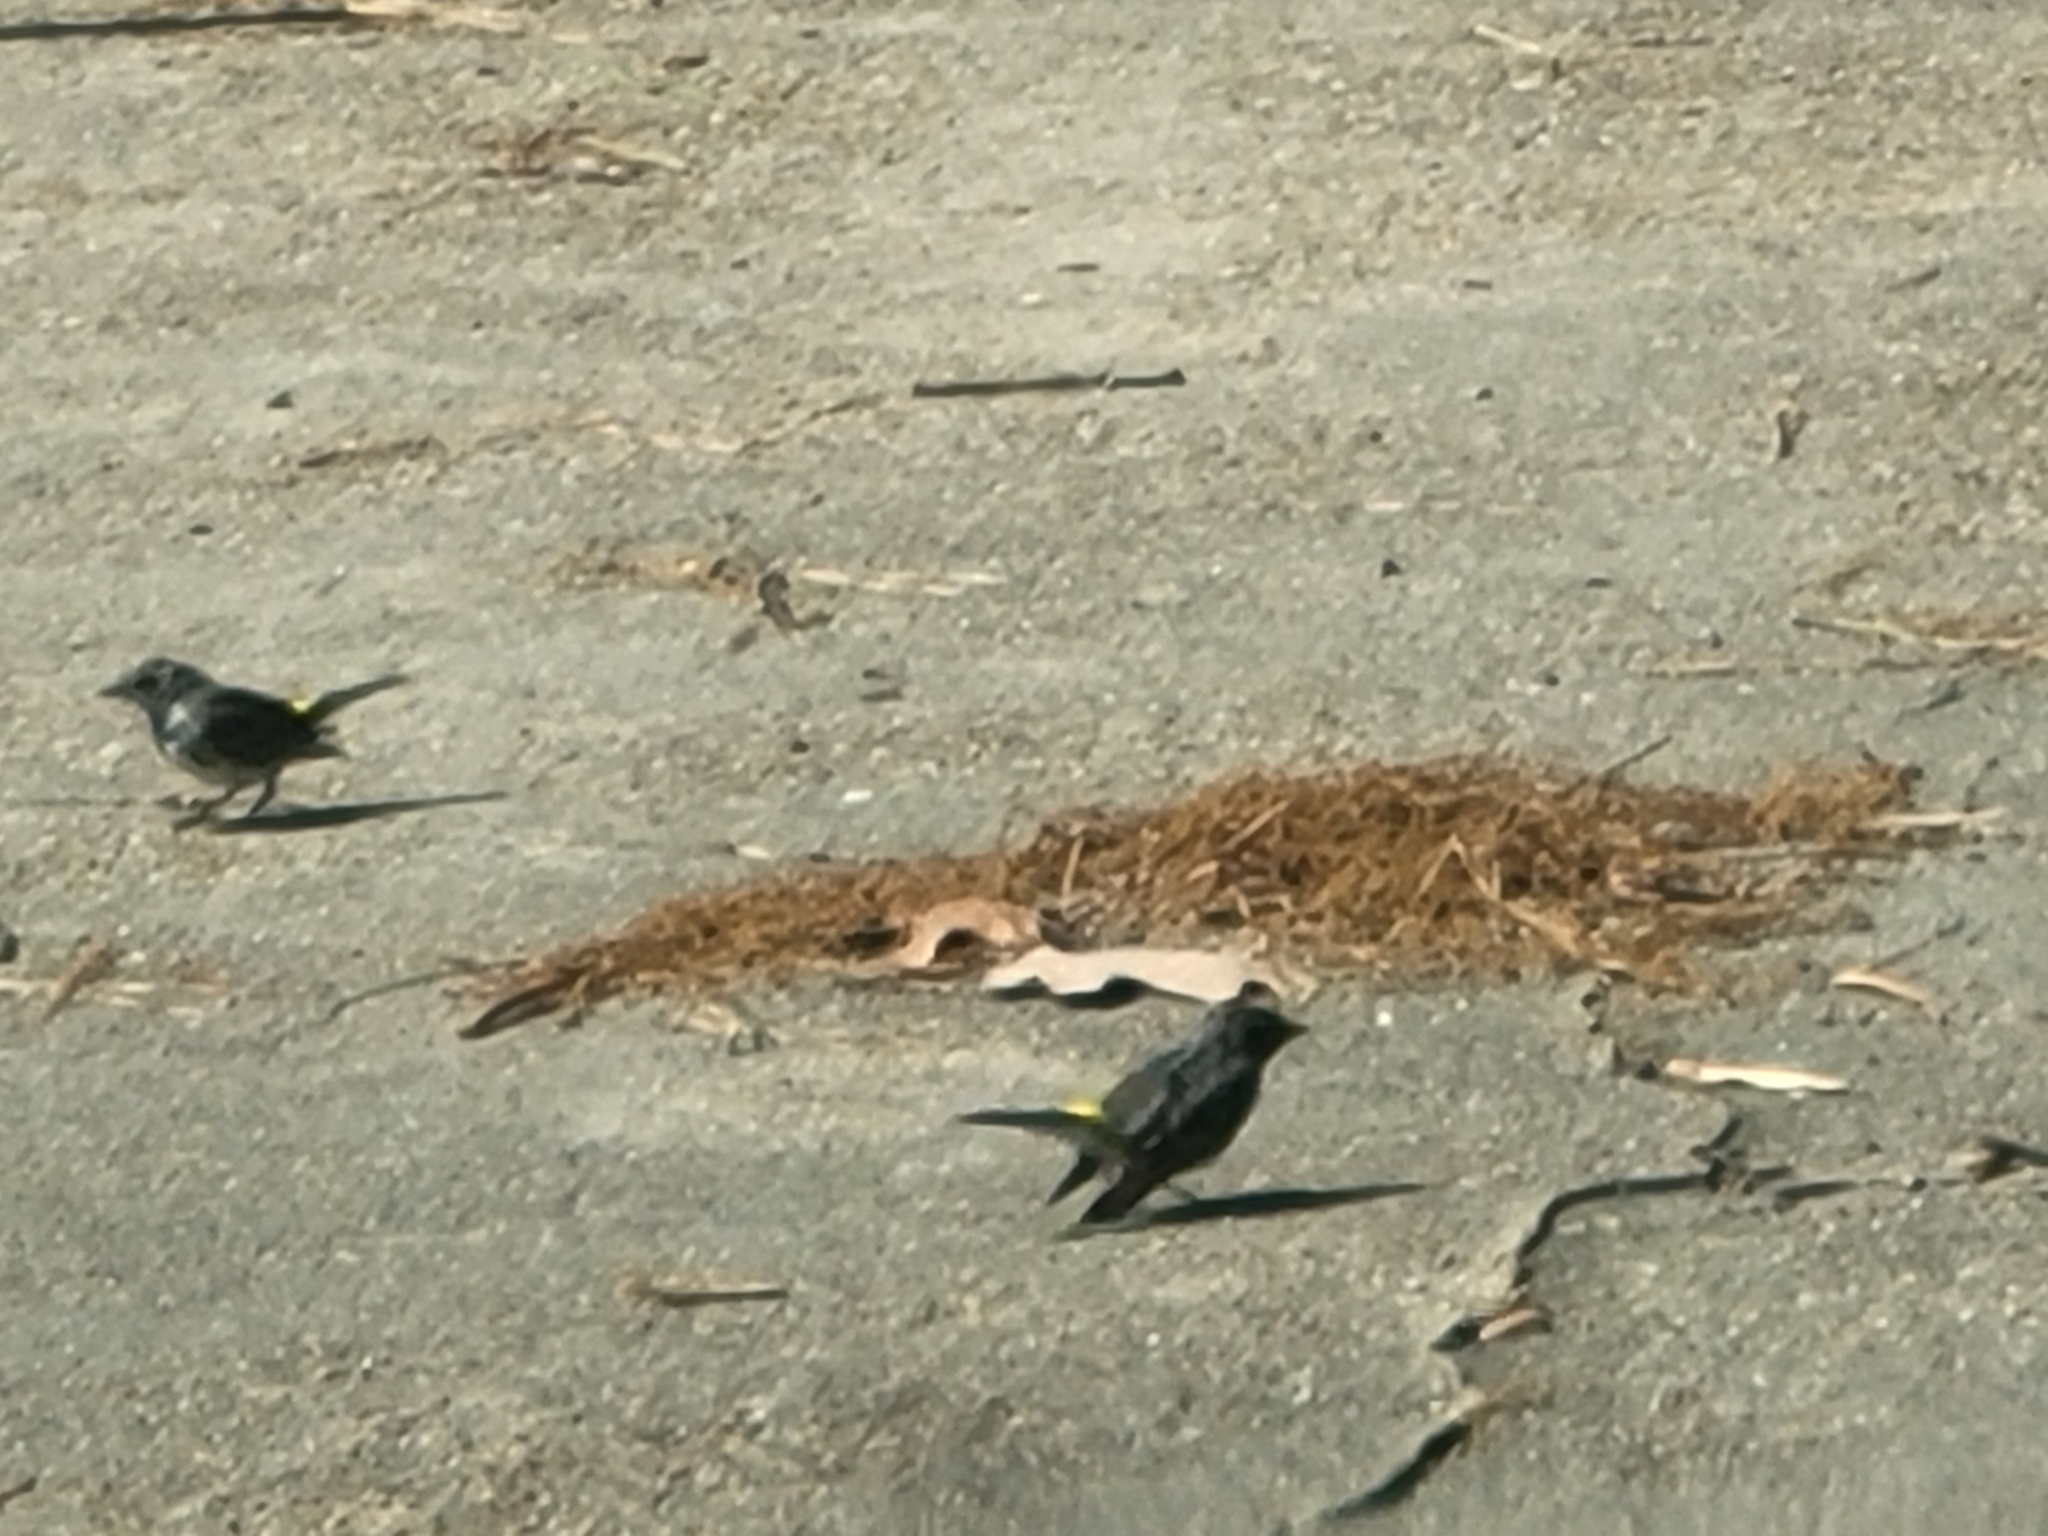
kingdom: Animalia
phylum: Chordata
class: Aves
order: Passeriformes
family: Parulidae
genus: Setophaga
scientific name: Setophaga coronata
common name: Myrtle warbler
